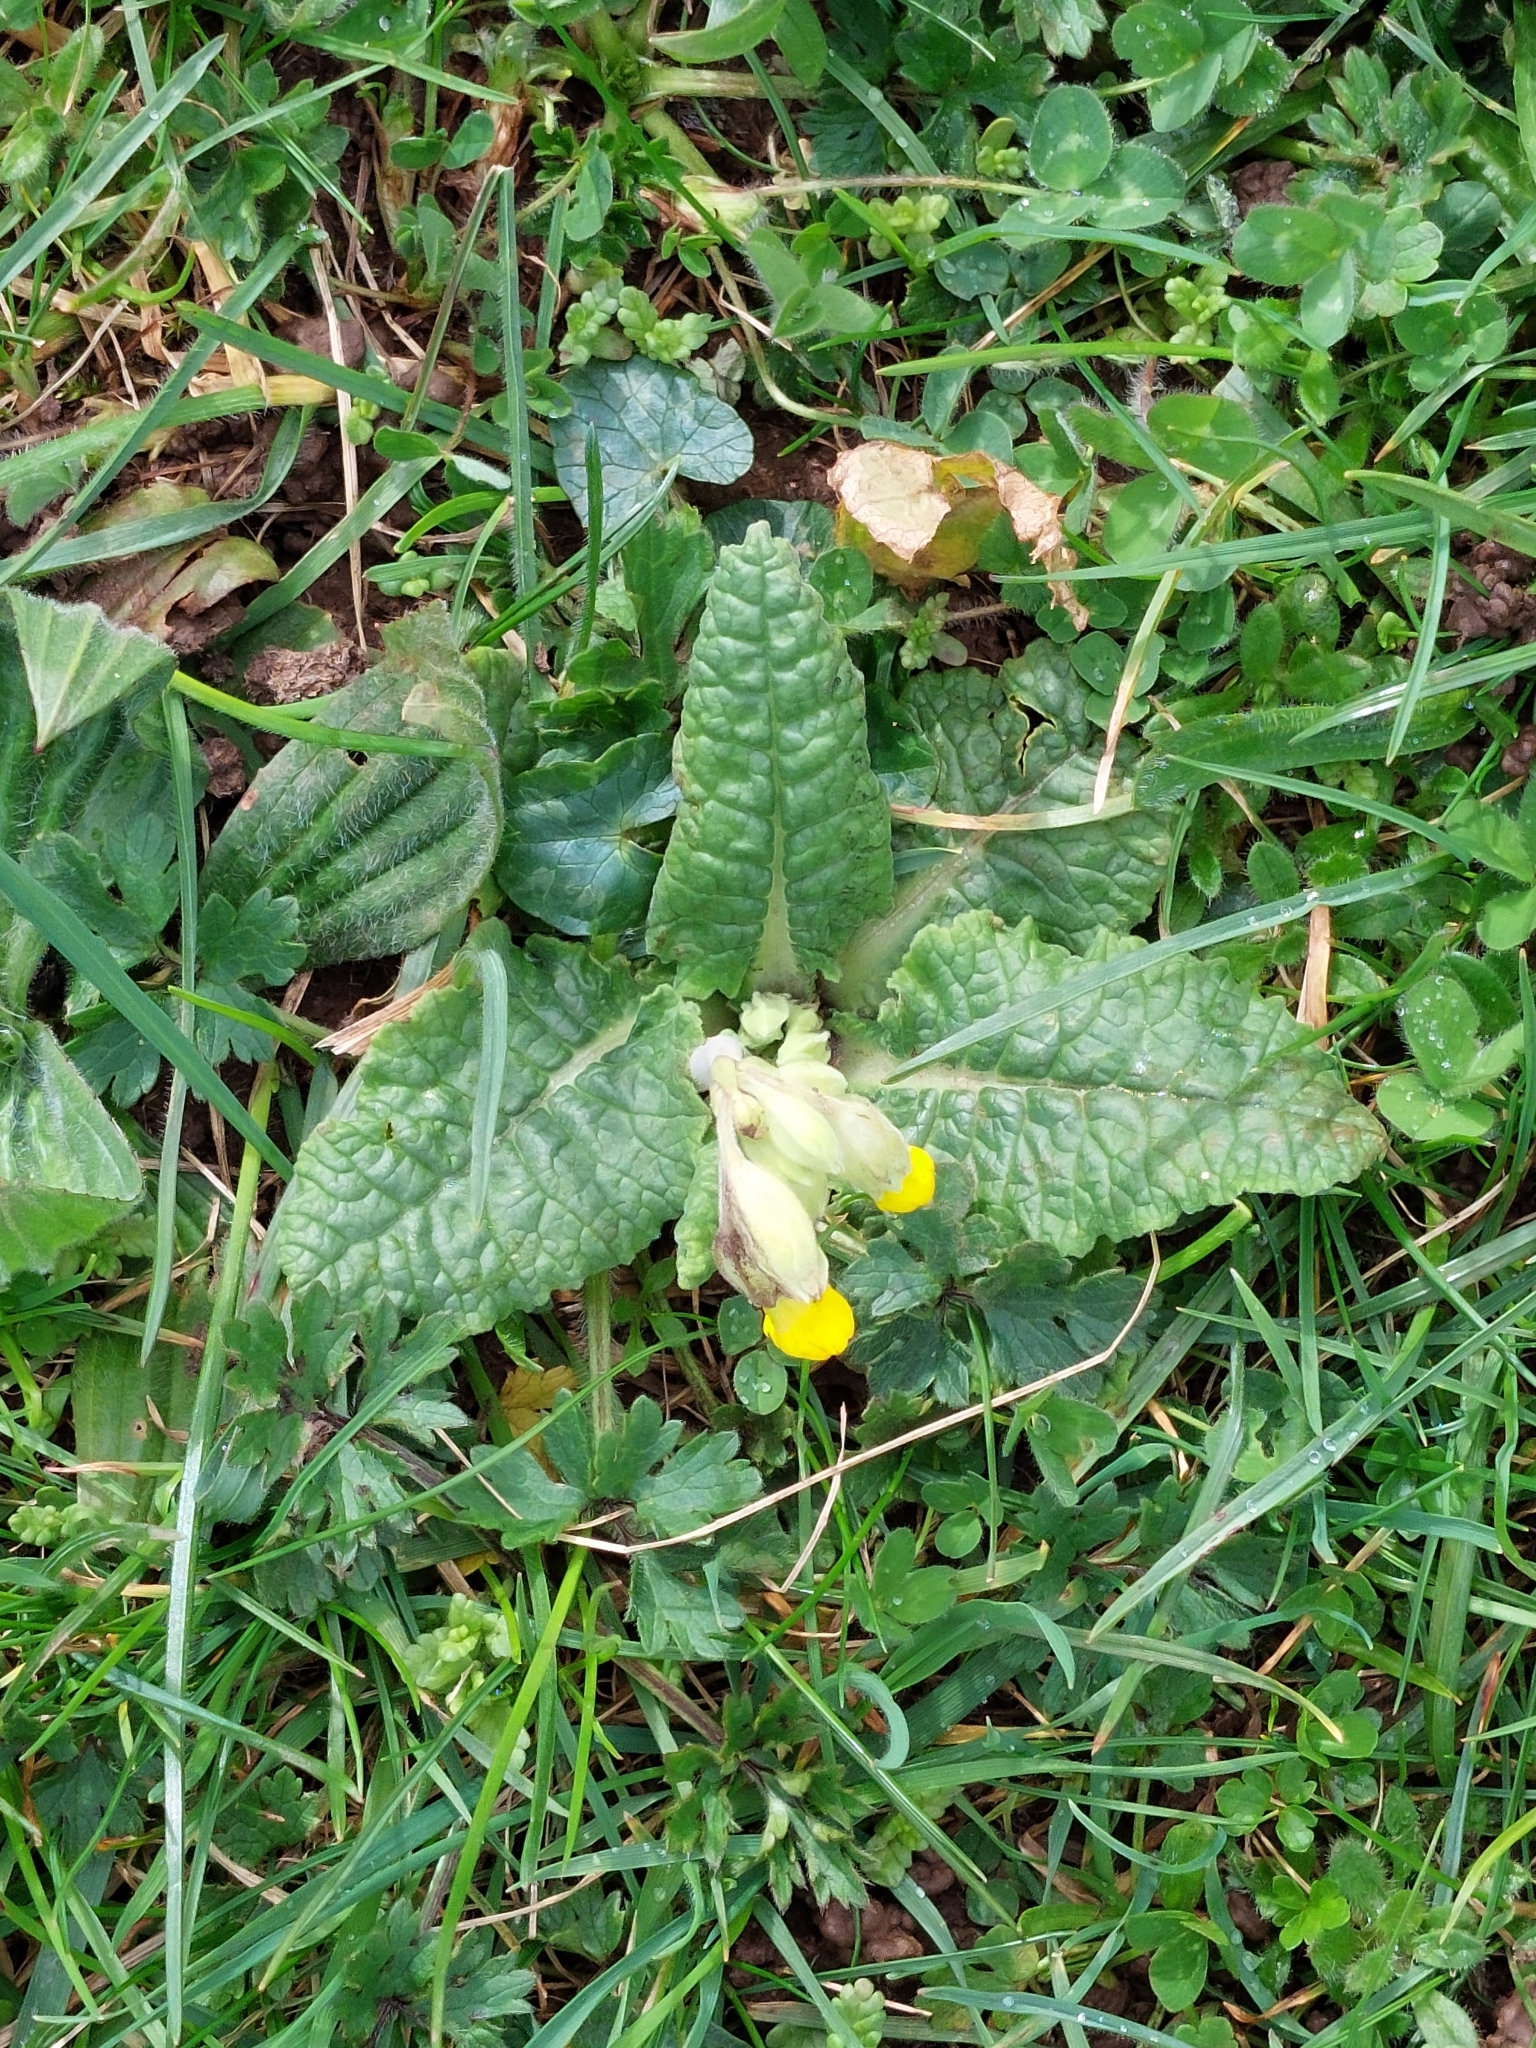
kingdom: Plantae
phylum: Tracheophyta
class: Magnoliopsida
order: Ericales
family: Primulaceae
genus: Primula
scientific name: Primula veris
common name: Cowslip
